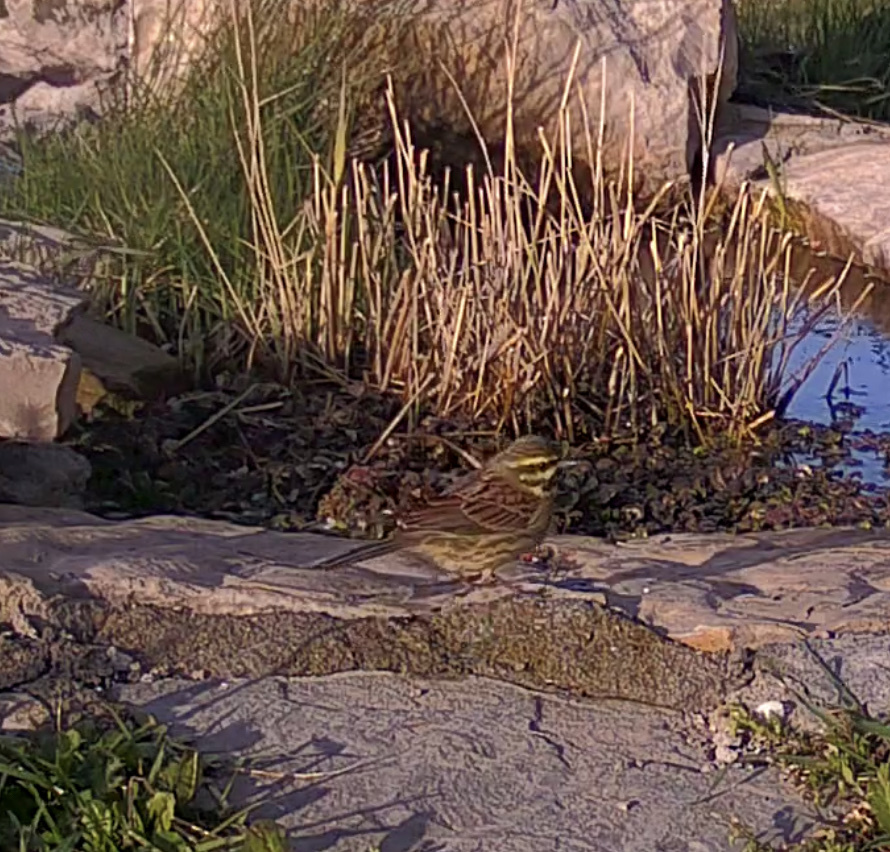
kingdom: Animalia
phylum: Chordata
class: Aves
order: Passeriformes
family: Emberizidae
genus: Emberiza
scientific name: Emberiza cirlus
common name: Cirl bunting
